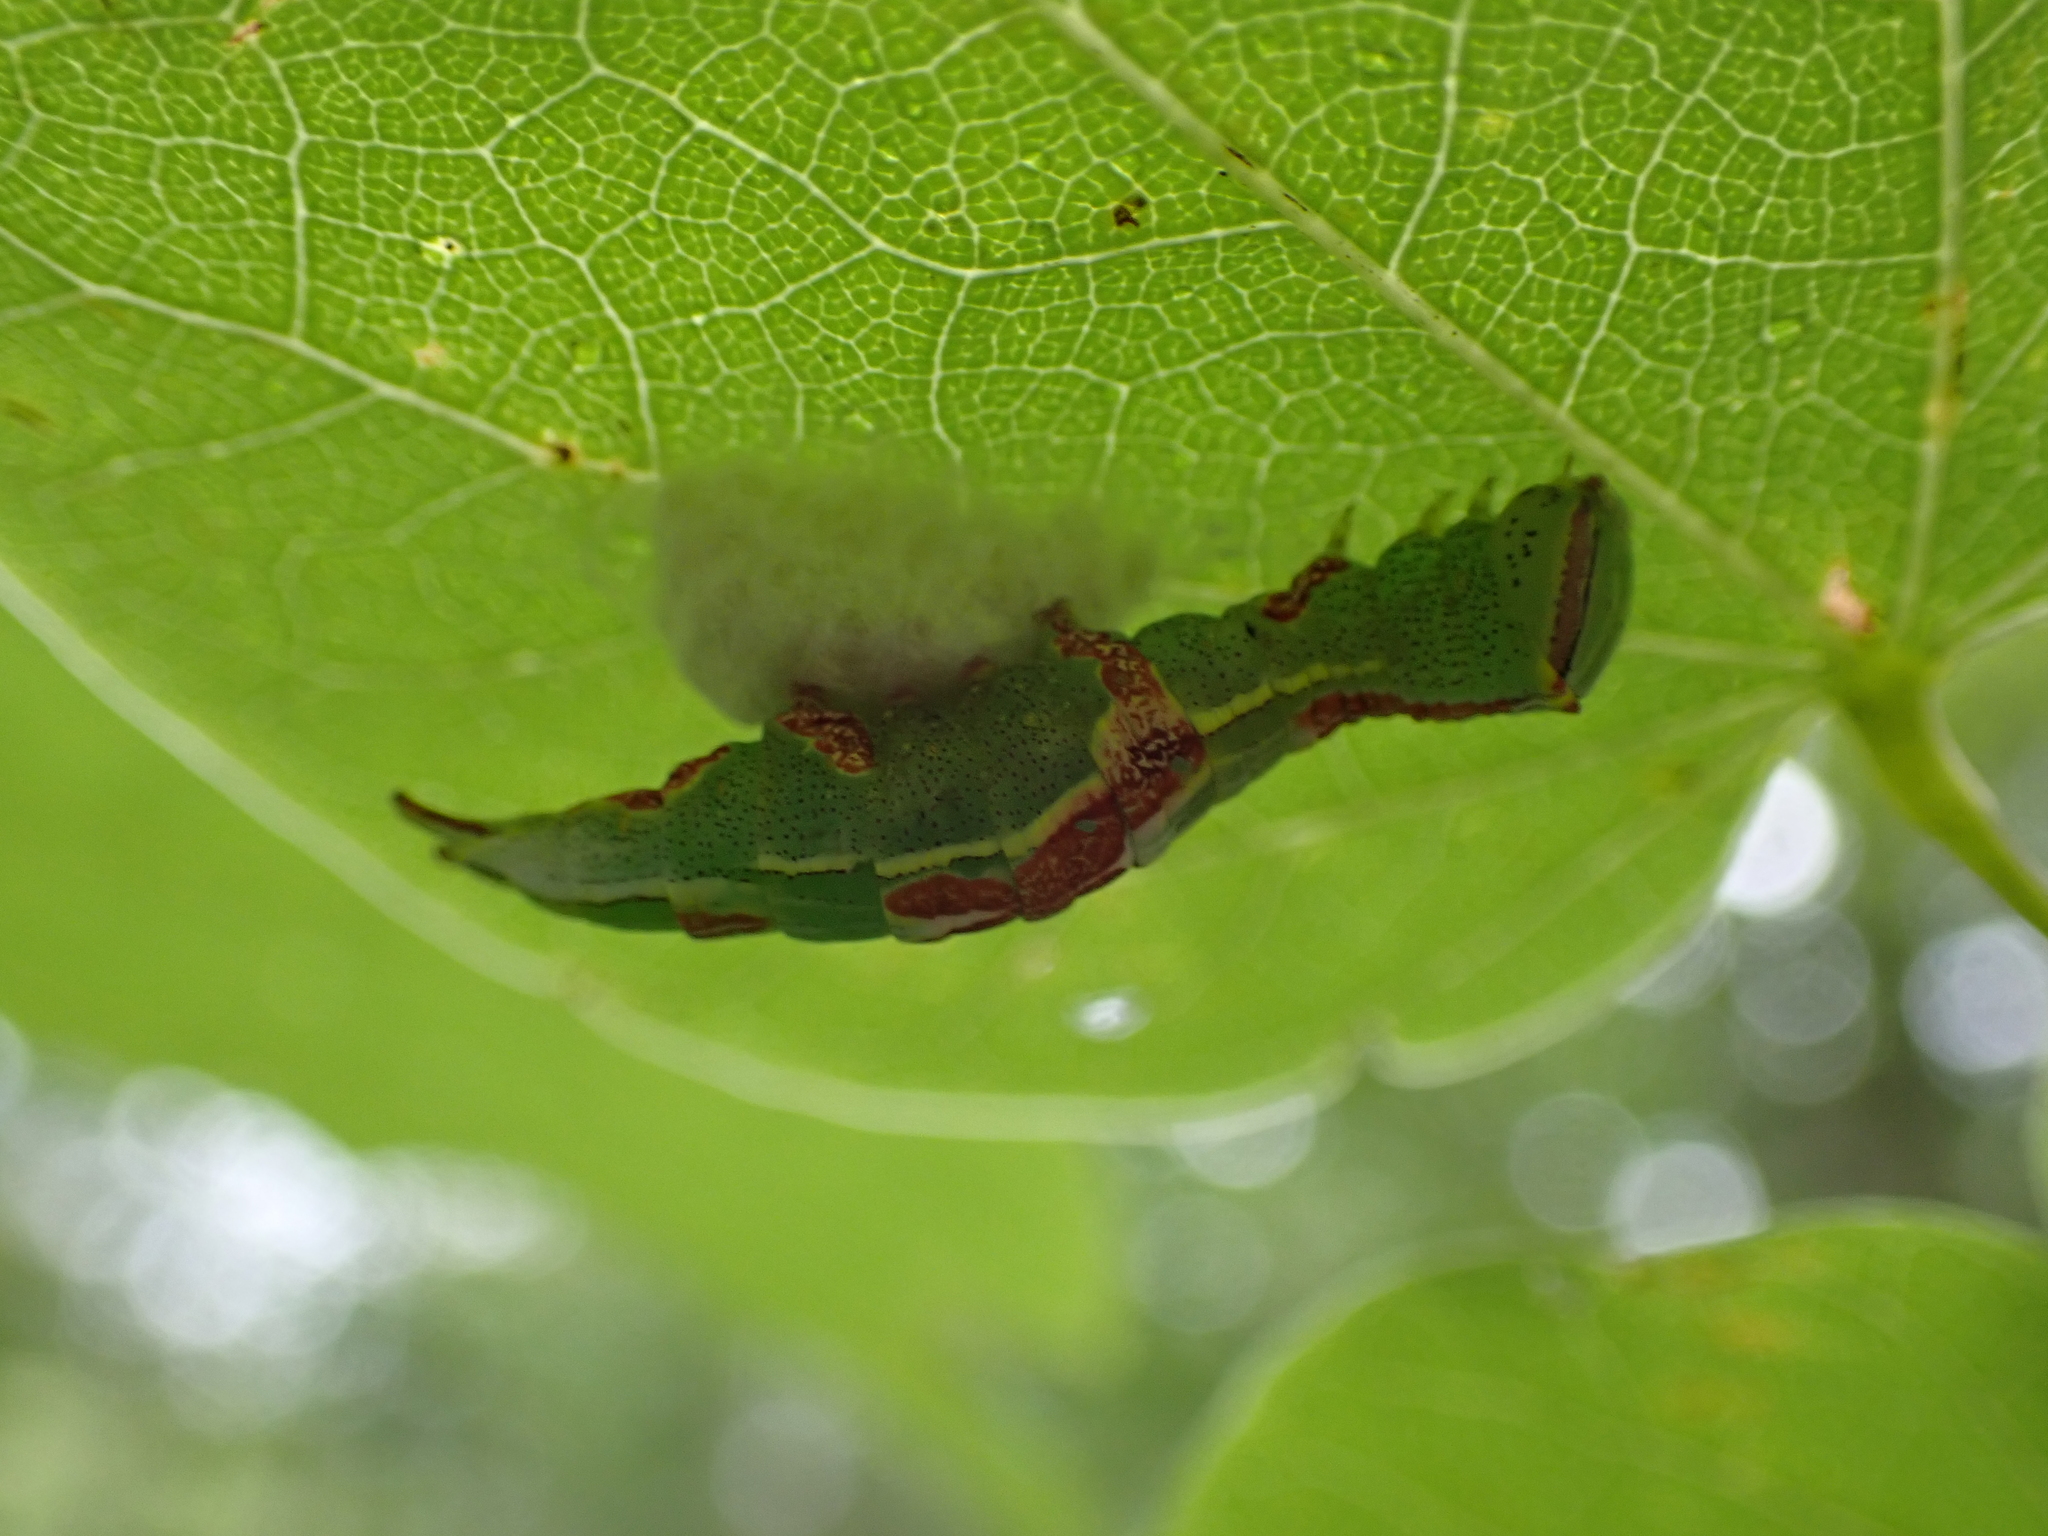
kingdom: Animalia
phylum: Arthropoda
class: Insecta
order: Lepidoptera
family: Notodontidae
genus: Disphragis
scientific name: Disphragis Cecrita guttivitta
